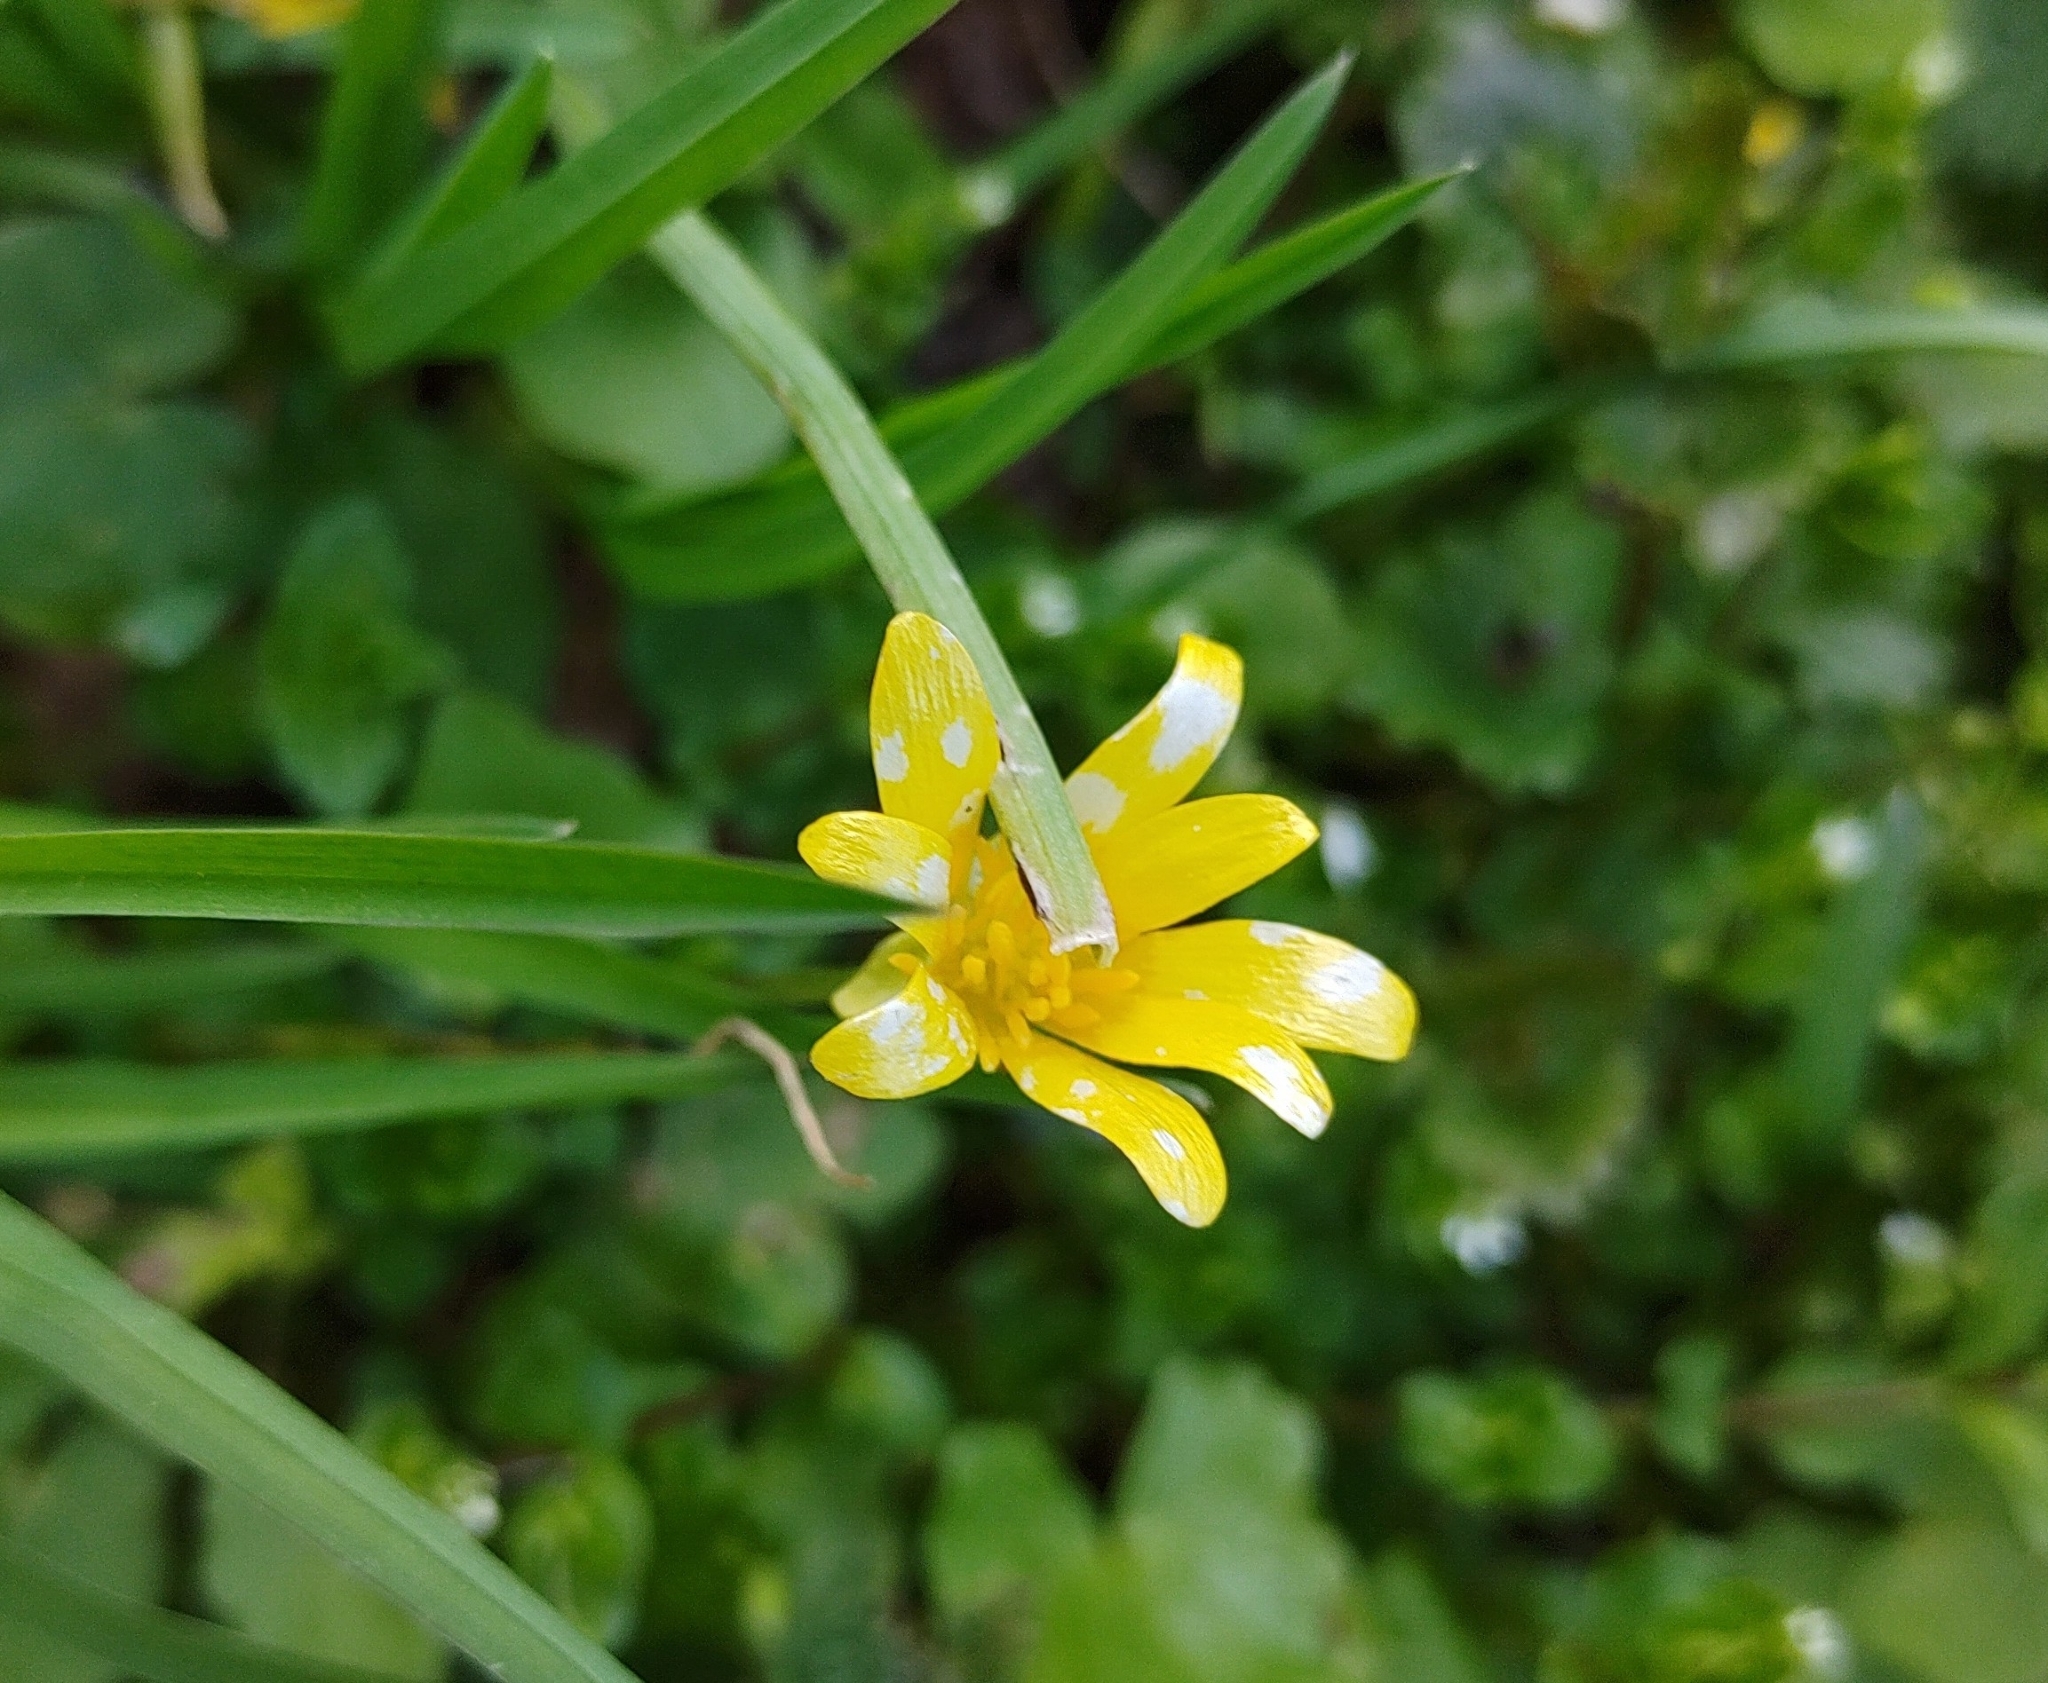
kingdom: Plantae
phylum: Tracheophyta
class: Magnoliopsida
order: Ranunculales
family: Ranunculaceae
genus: Ficaria
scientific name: Ficaria verna
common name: Lesser celandine
